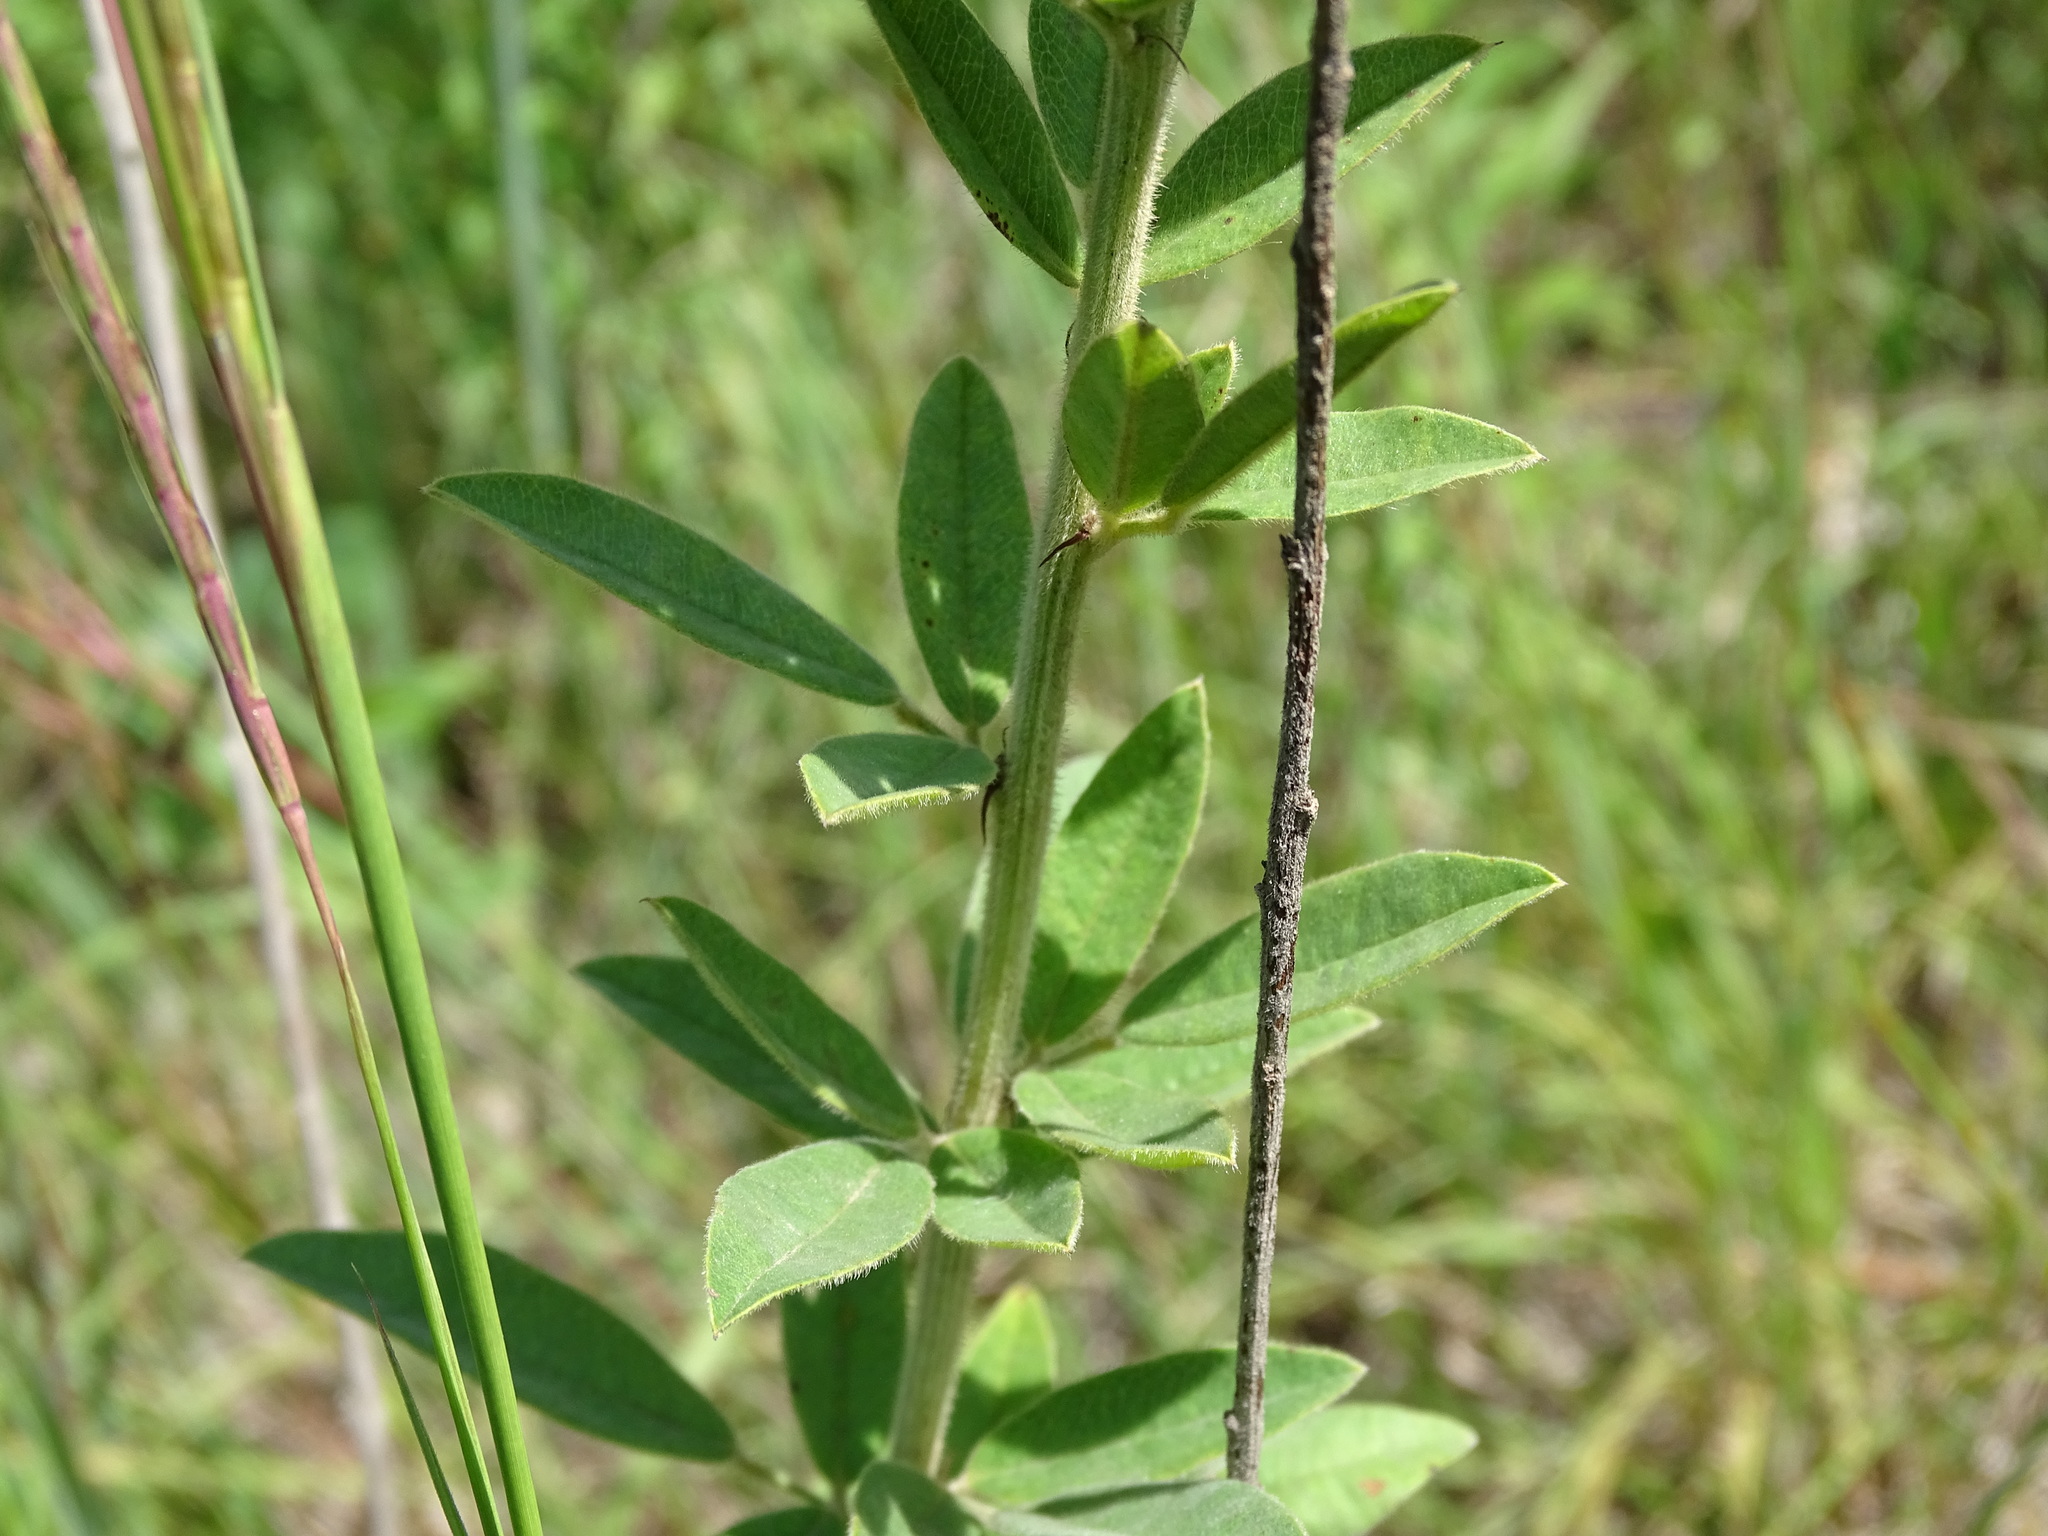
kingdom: Plantae
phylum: Tracheophyta
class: Magnoliopsida
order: Fabales
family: Fabaceae
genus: Lespedeza
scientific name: Lespedeza capitata
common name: Dusty clover
